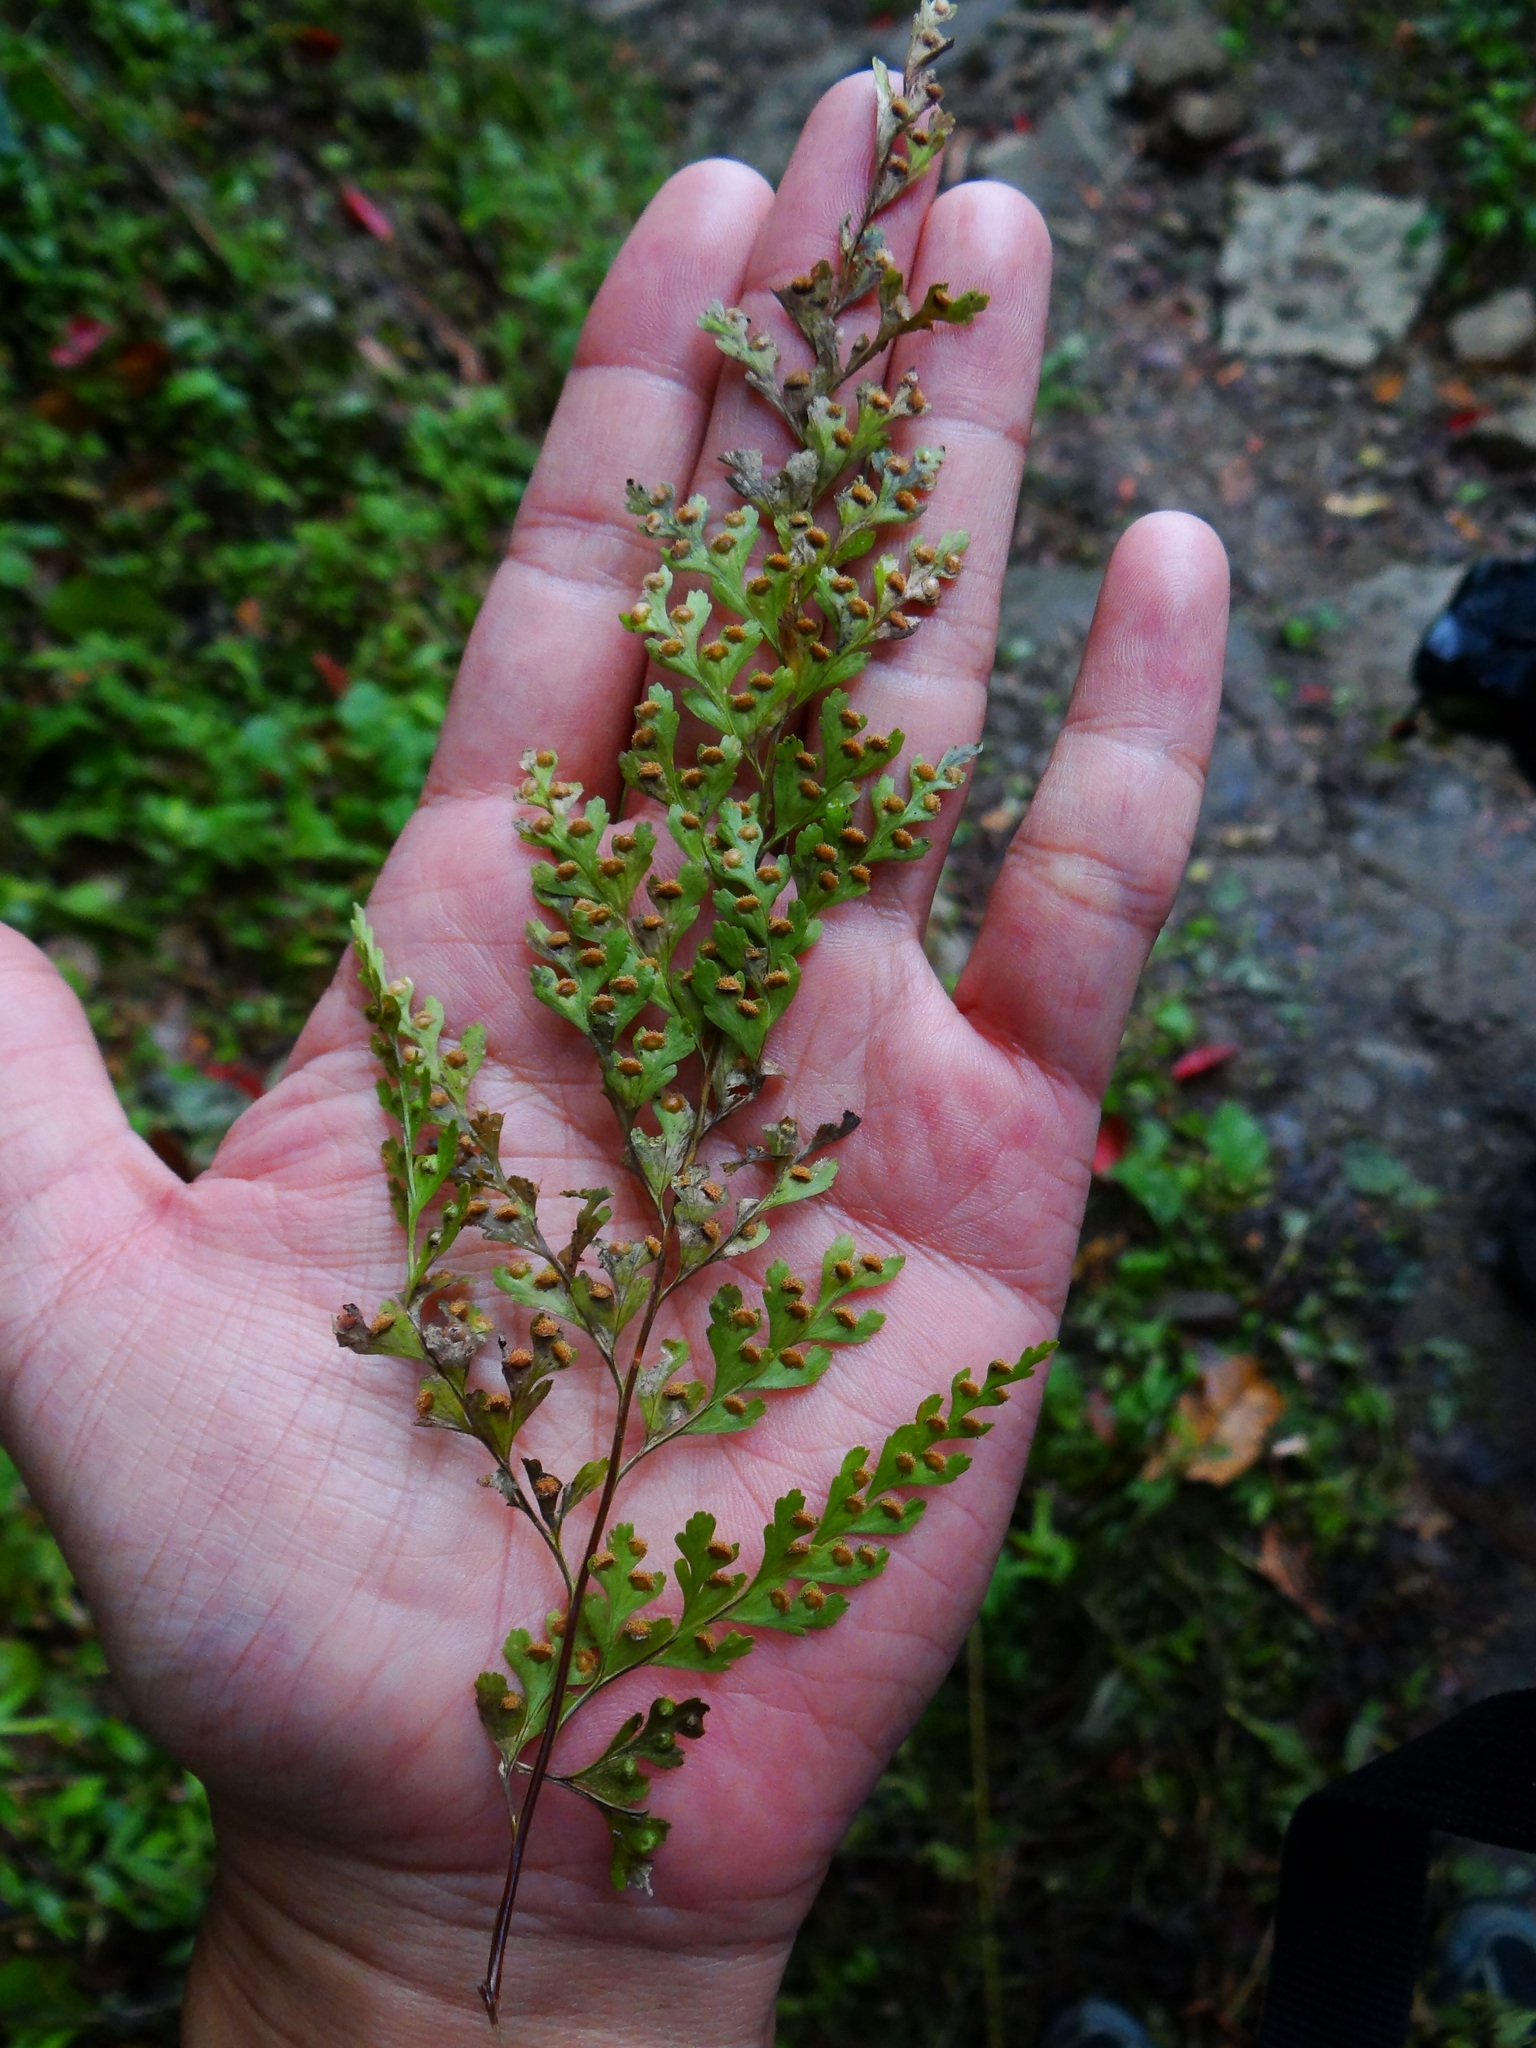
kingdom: Plantae
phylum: Tracheophyta
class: Polypodiopsida
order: Polypodiales
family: Hypodematiaceae
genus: Leucostegia
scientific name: Leucostegia immersa
